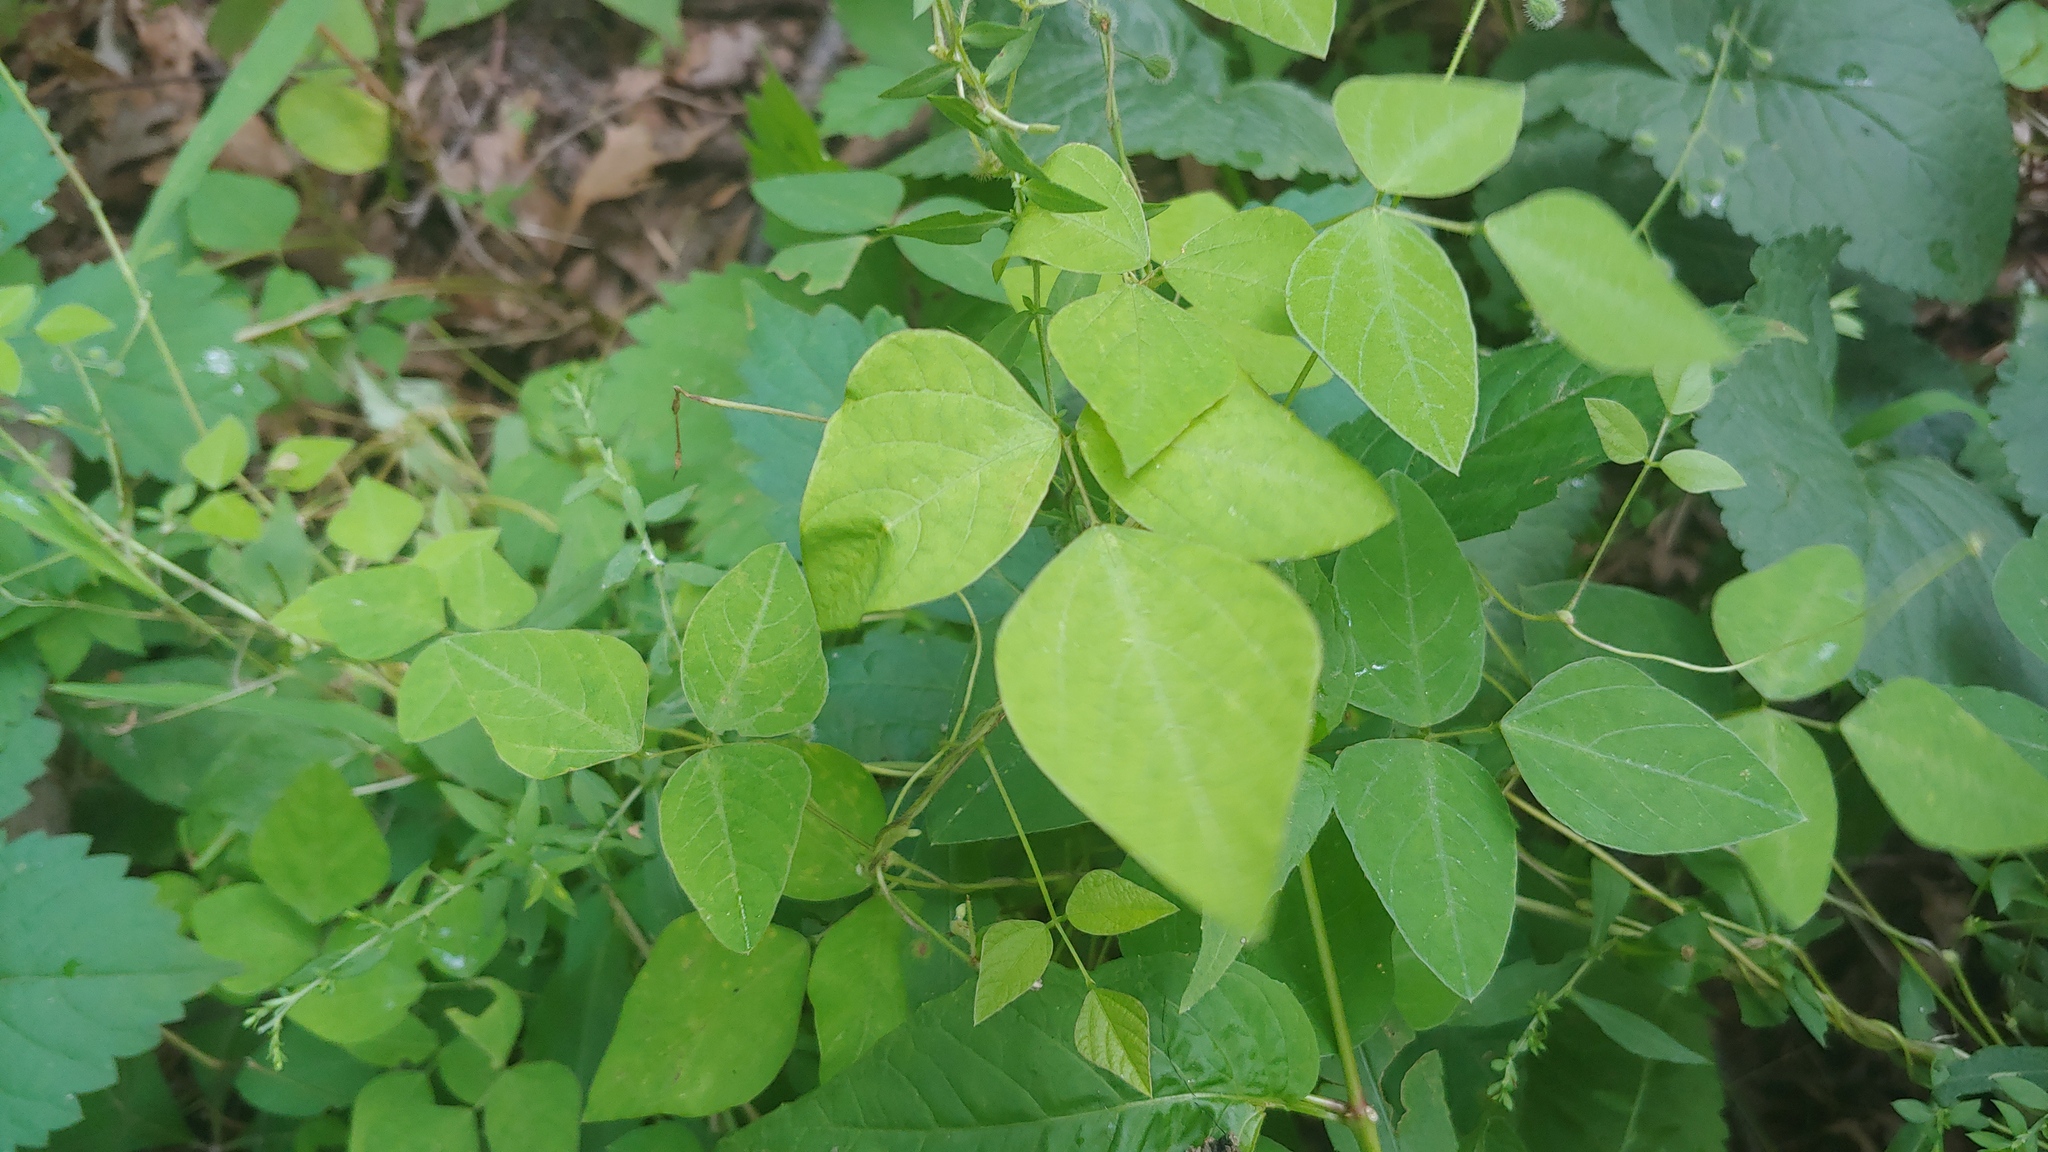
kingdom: Plantae
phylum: Tracheophyta
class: Magnoliopsida
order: Fabales
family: Fabaceae
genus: Amphicarpaea
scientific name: Amphicarpaea bracteata
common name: American hog peanut
